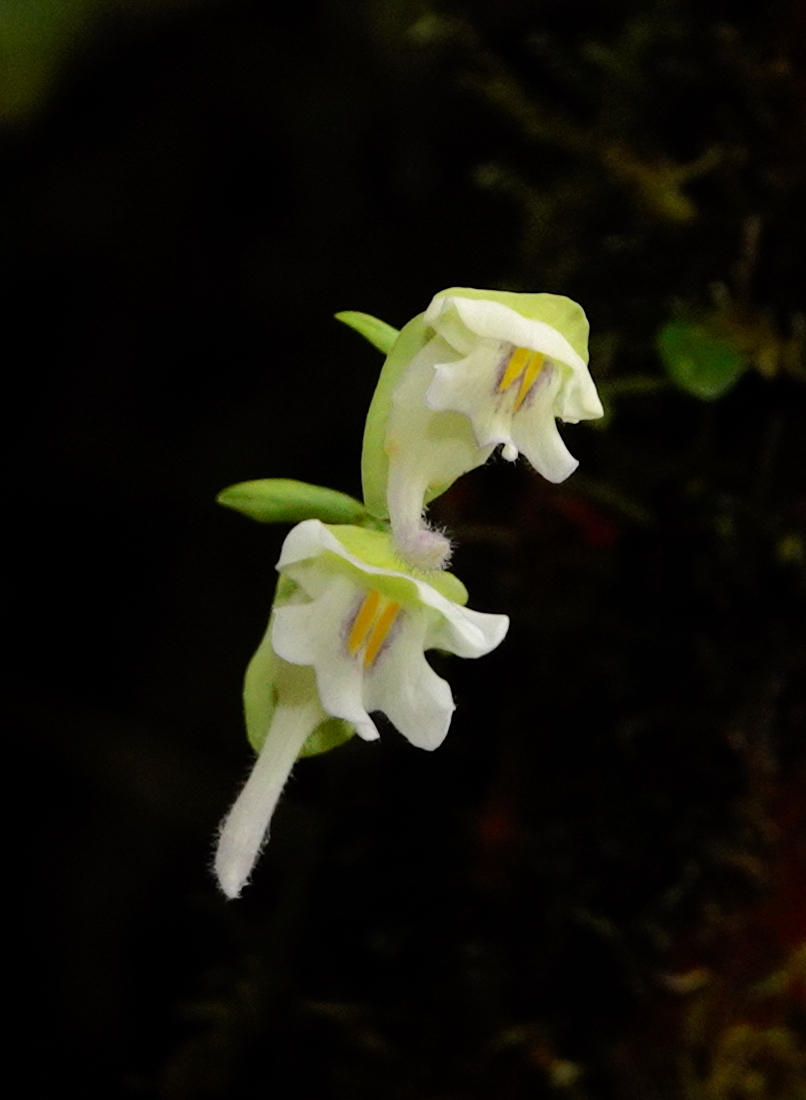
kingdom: Plantae
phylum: Tracheophyta
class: Magnoliopsida
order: Lamiales
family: Lentibulariaceae
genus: Utricularia
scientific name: Utricularia asplundii
